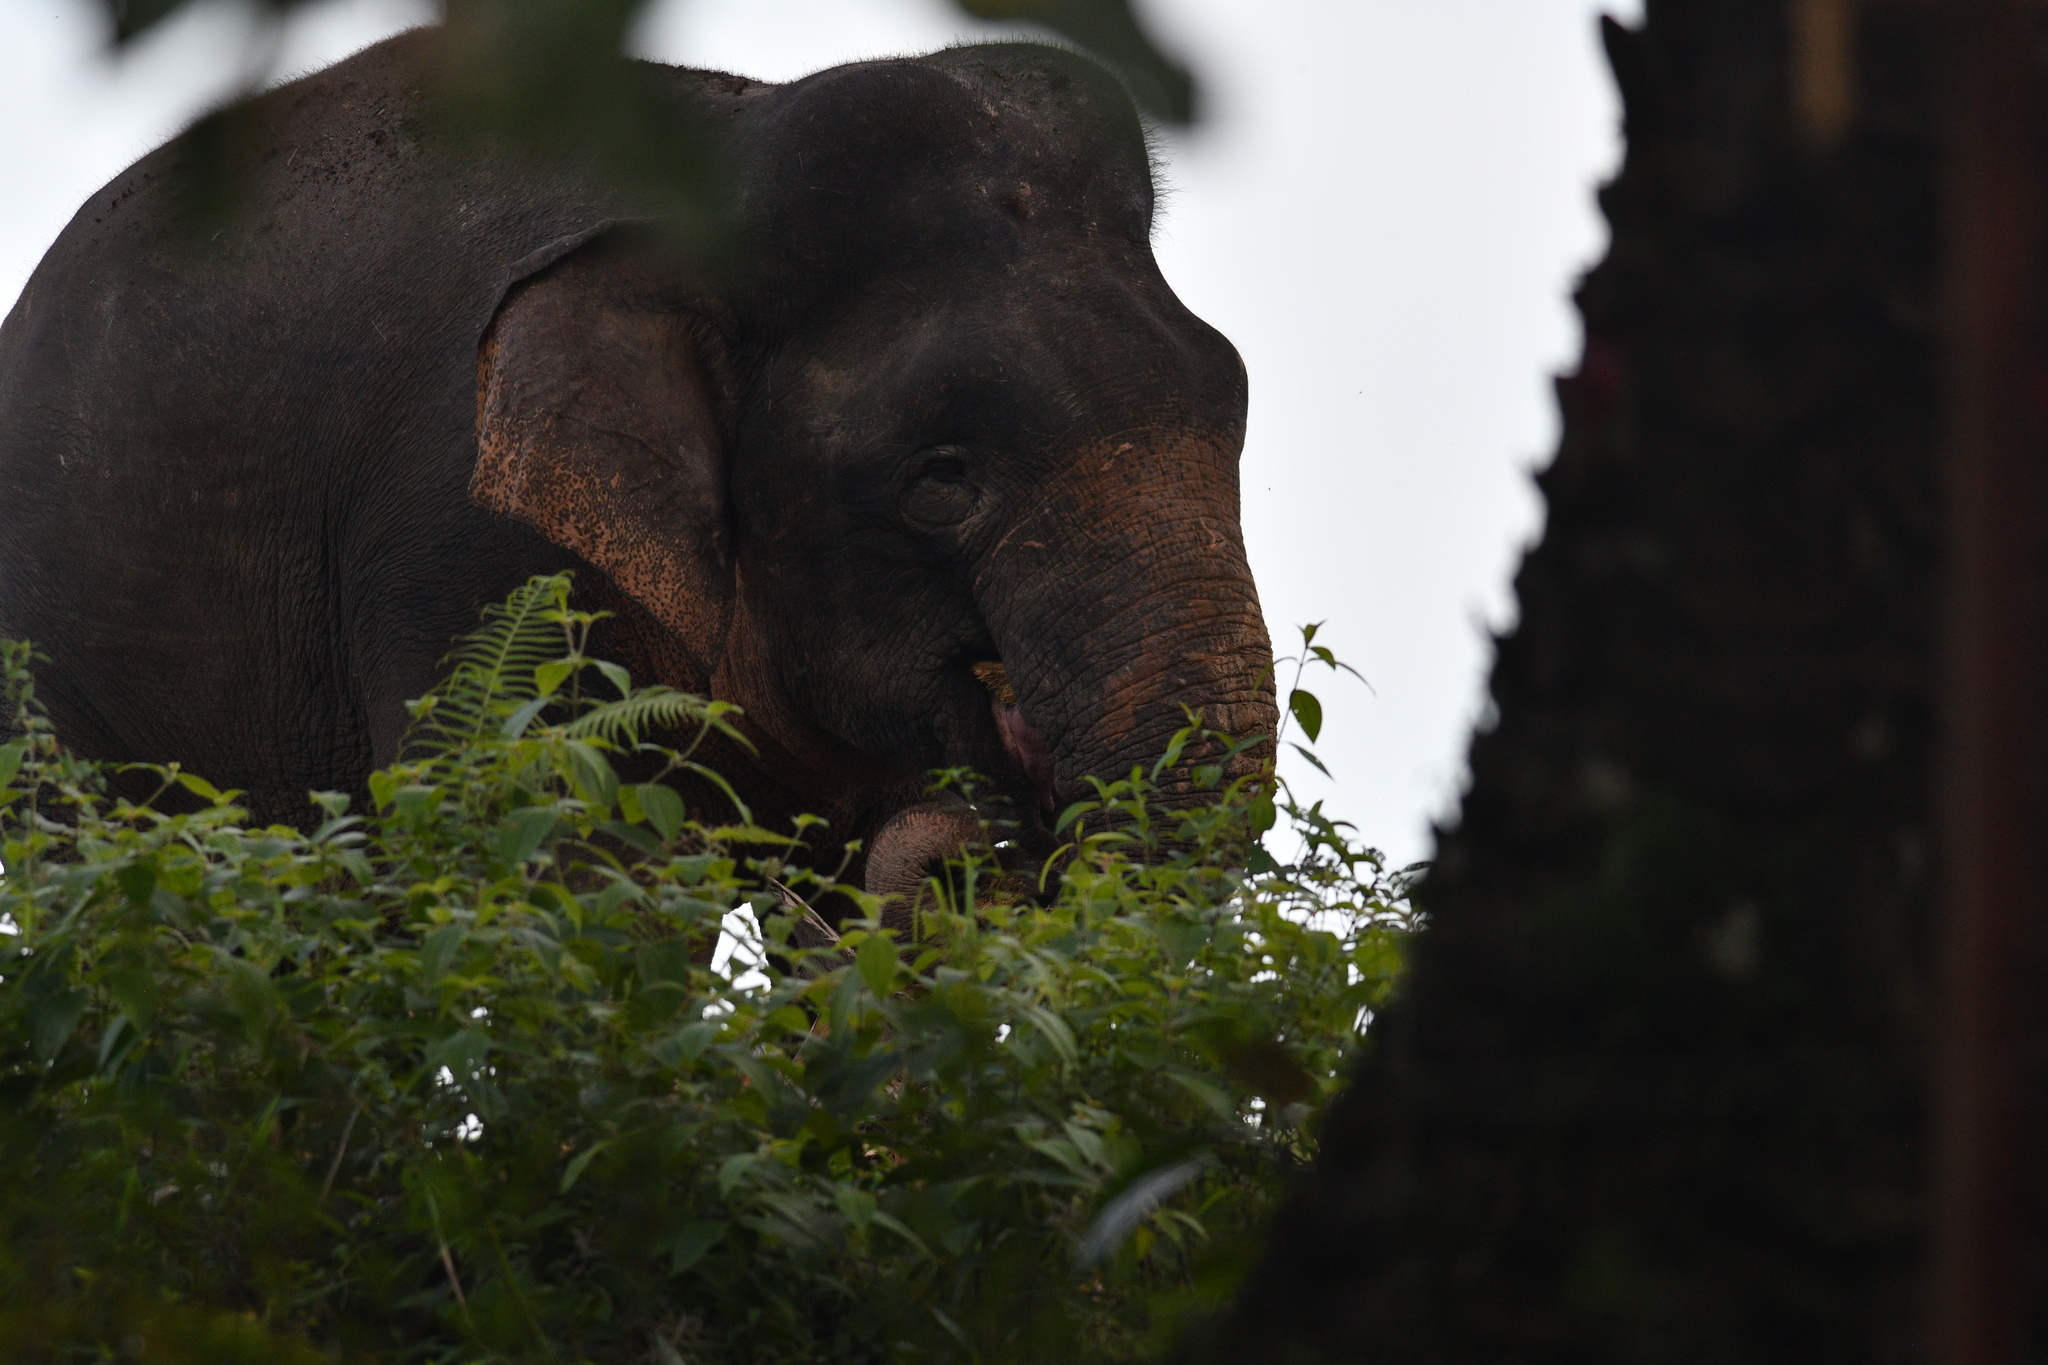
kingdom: Animalia
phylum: Chordata
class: Mammalia
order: Proboscidea
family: Elephantidae
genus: Elephas
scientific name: Elephas maximus
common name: Asian elephant
